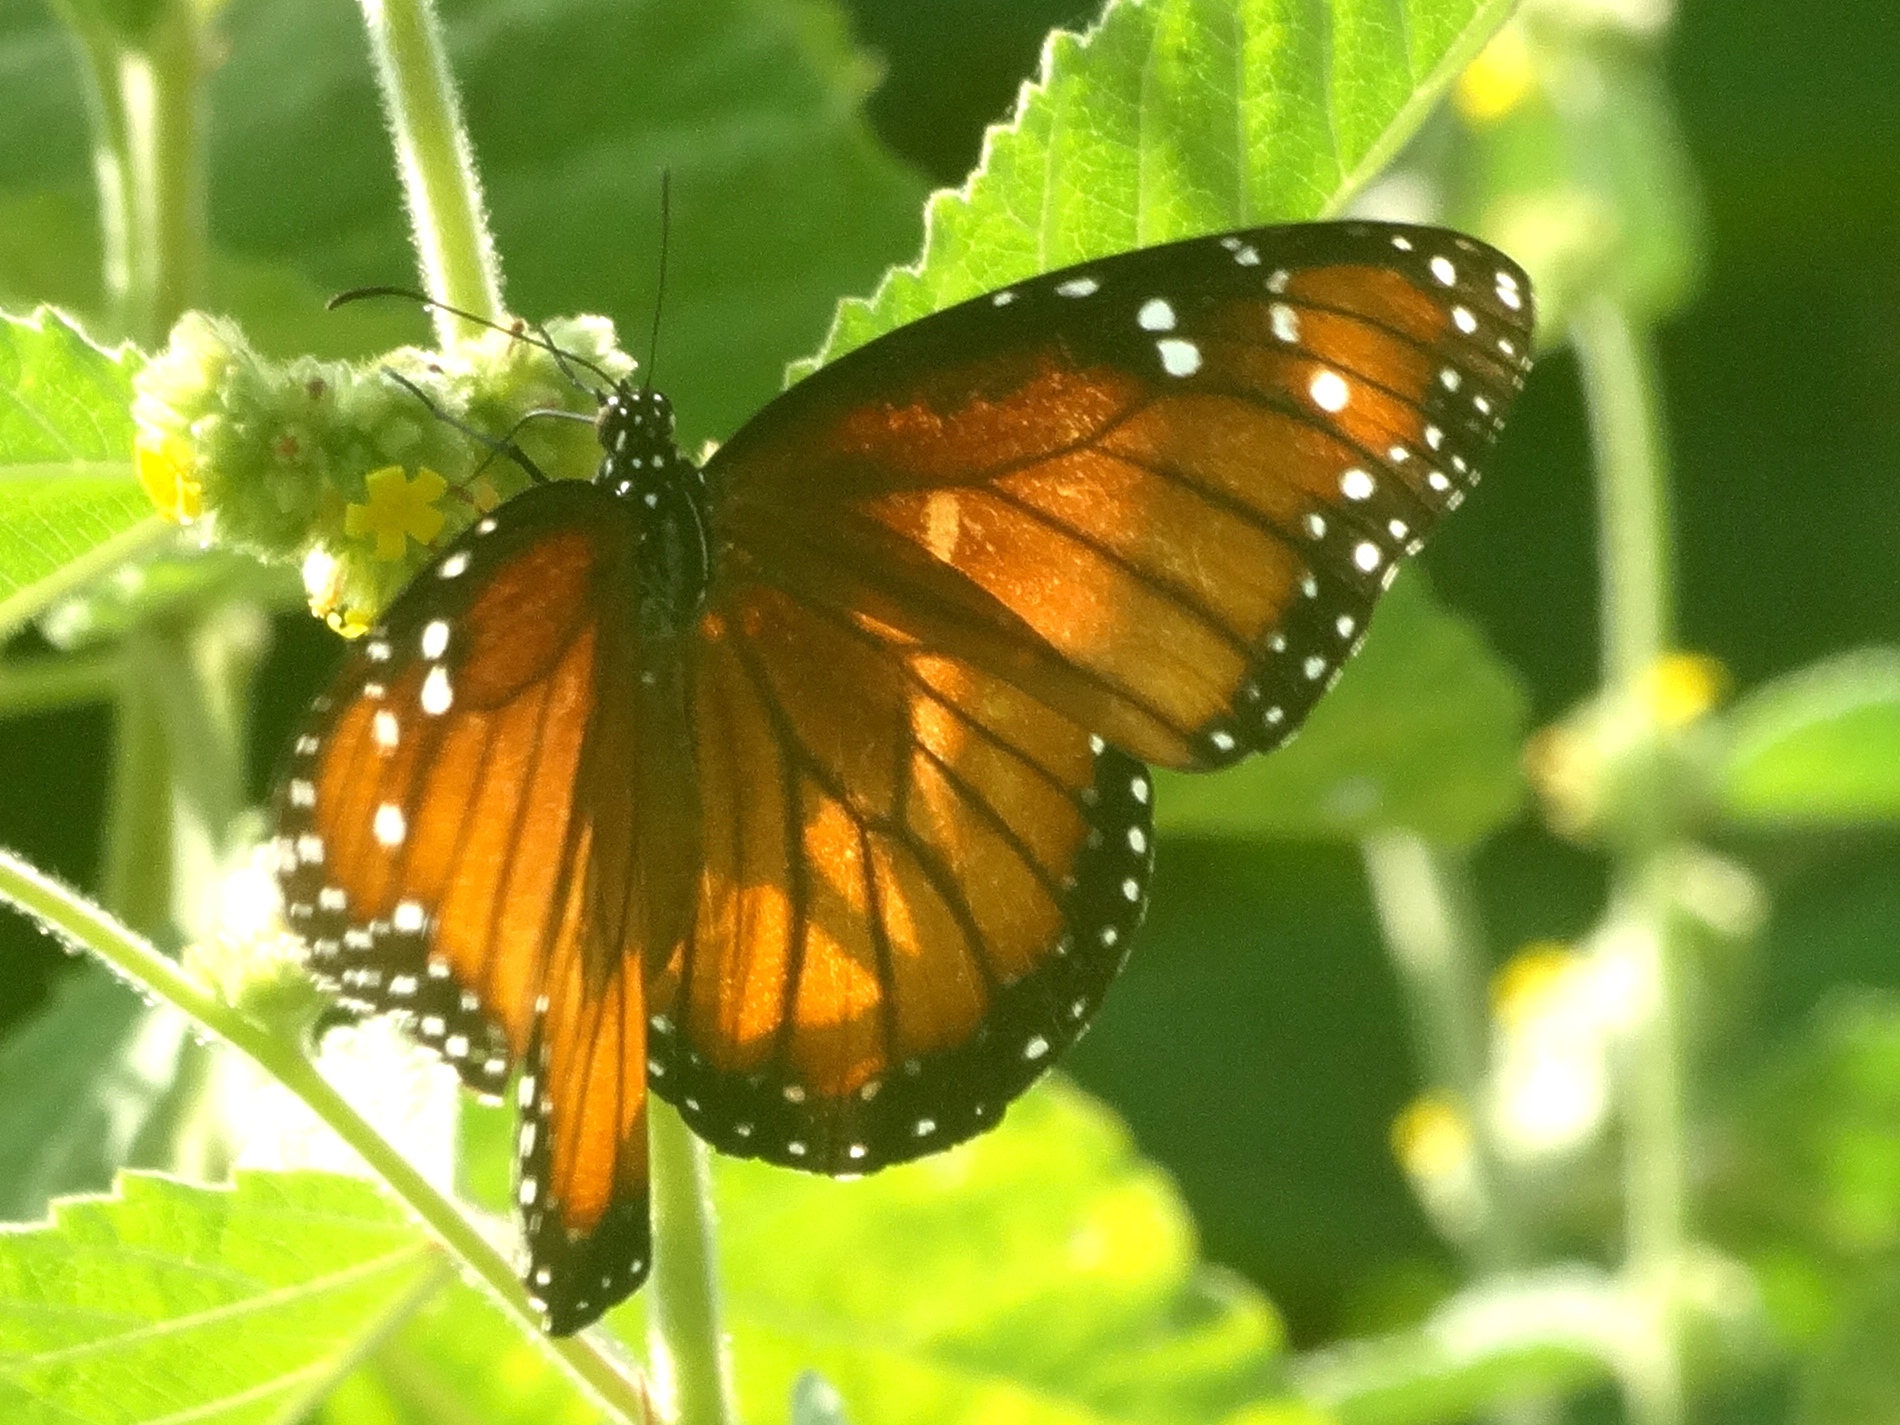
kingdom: Animalia
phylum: Arthropoda
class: Insecta
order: Lepidoptera
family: Nymphalidae
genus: Danaus
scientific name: Danaus eresimus
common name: Soldier
